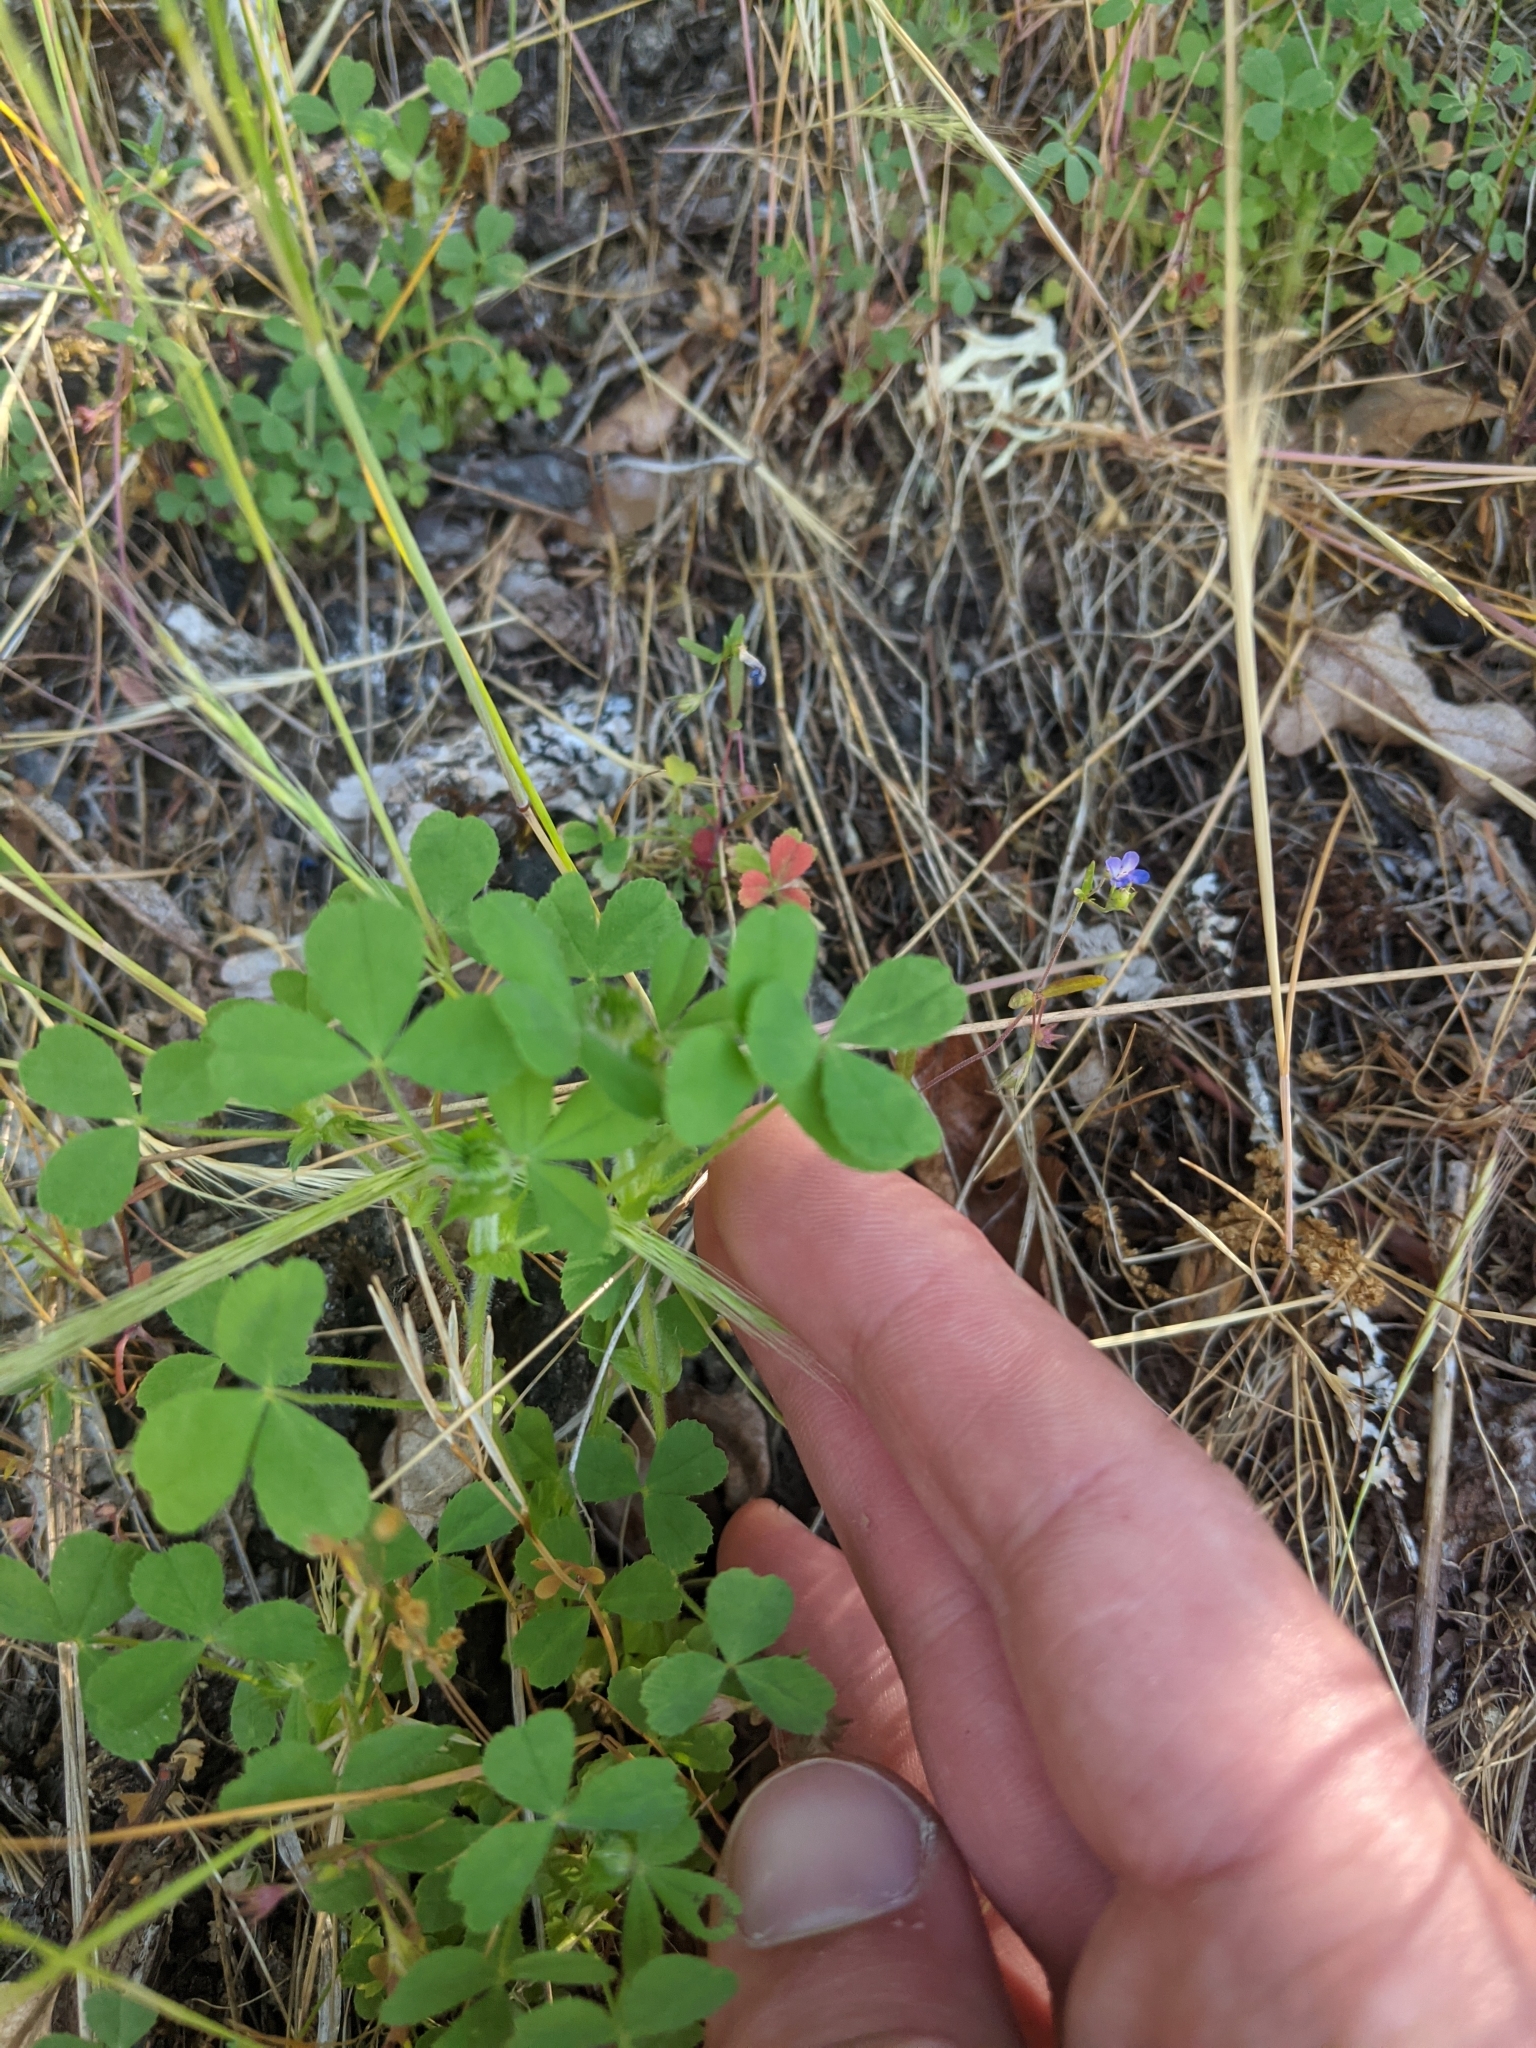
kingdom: Plantae
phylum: Tracheophyta
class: Magnoliopsida
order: Fabales
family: Fabaceae
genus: Trifolium
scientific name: Trifolium microcephalum
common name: Maiden clover
